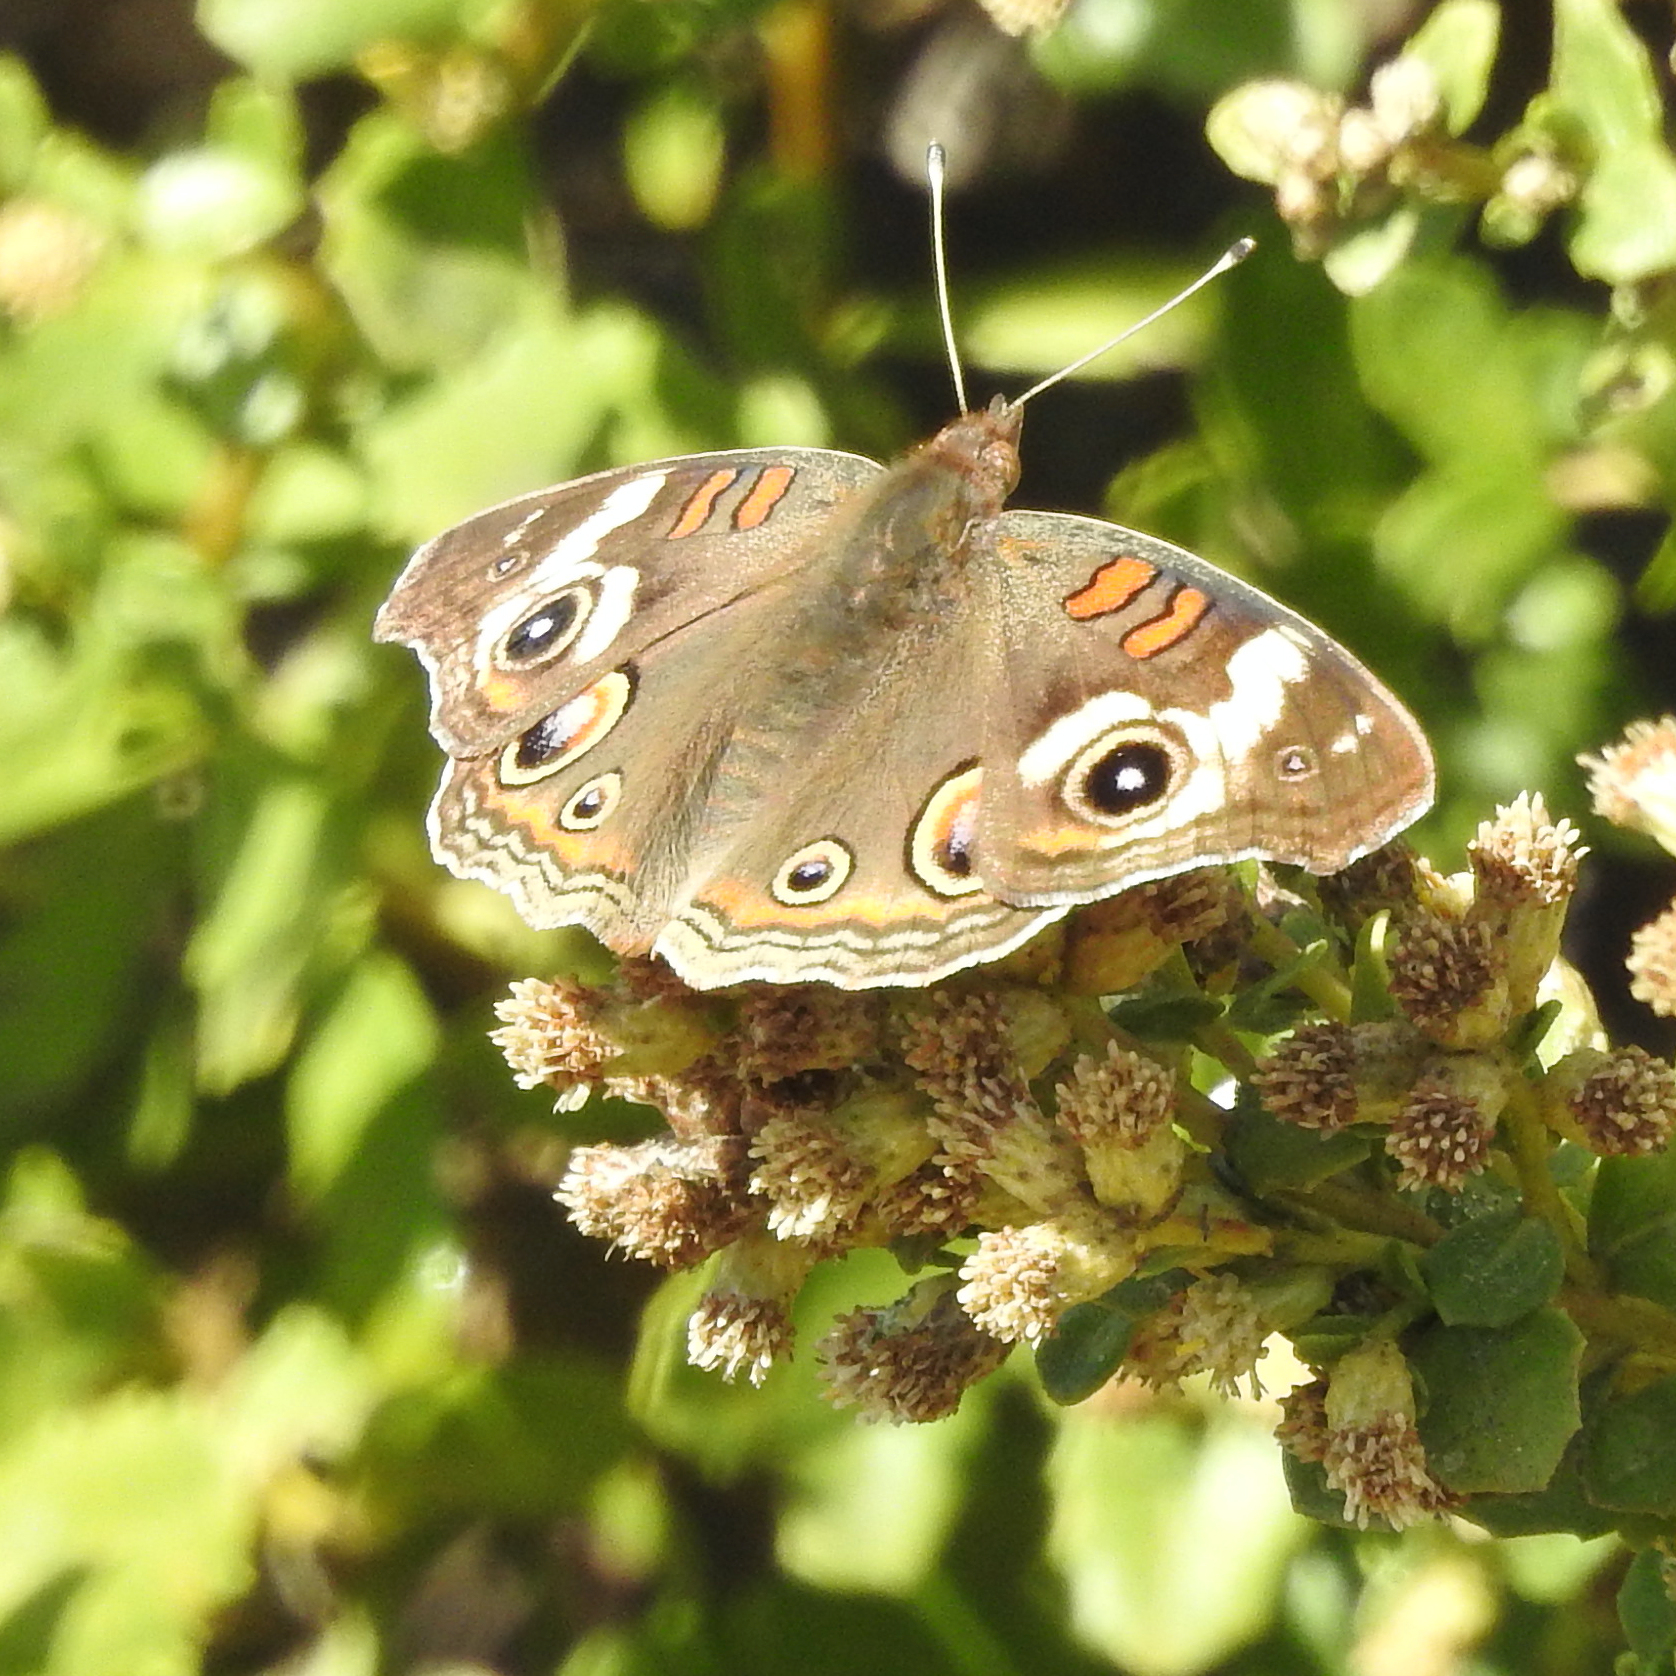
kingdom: Animalia
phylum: Arthropoda
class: Insecta
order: Lepidoptera
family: Nymphalidae
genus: Junonia
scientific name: Junonia grisea
